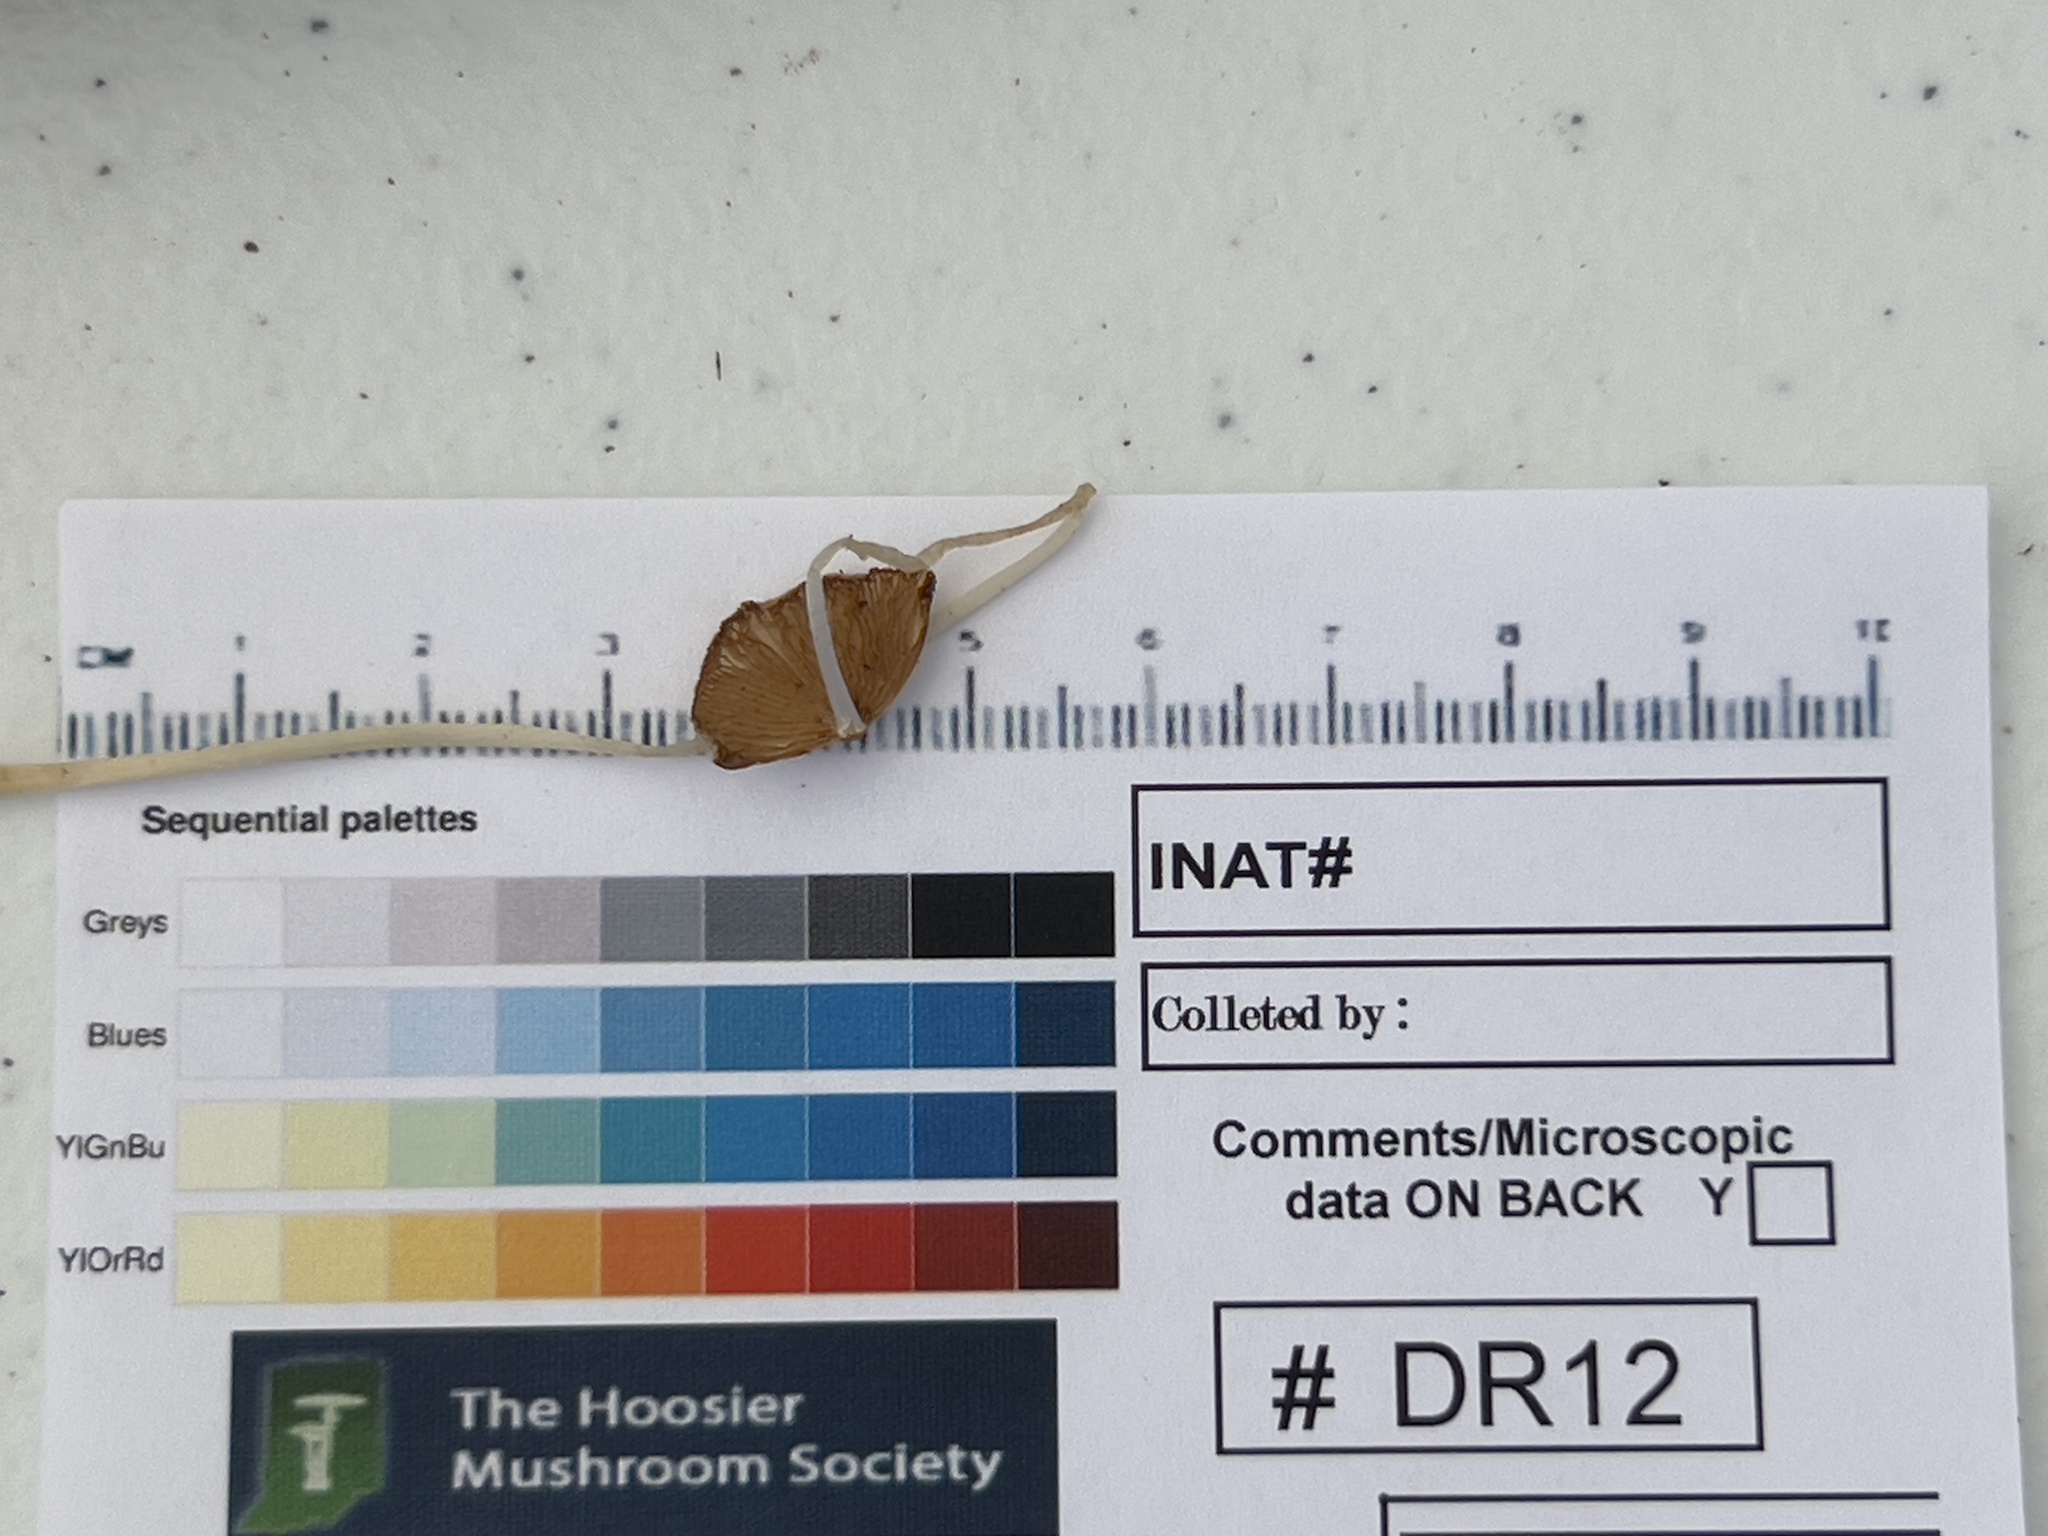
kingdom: Fungi
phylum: Basidiomycota
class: Agaricomycetes
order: Agaricales
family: Bolbitiaceae
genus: Bolbitius
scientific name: Bolbitius reticulatus
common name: Netted fieldcap
